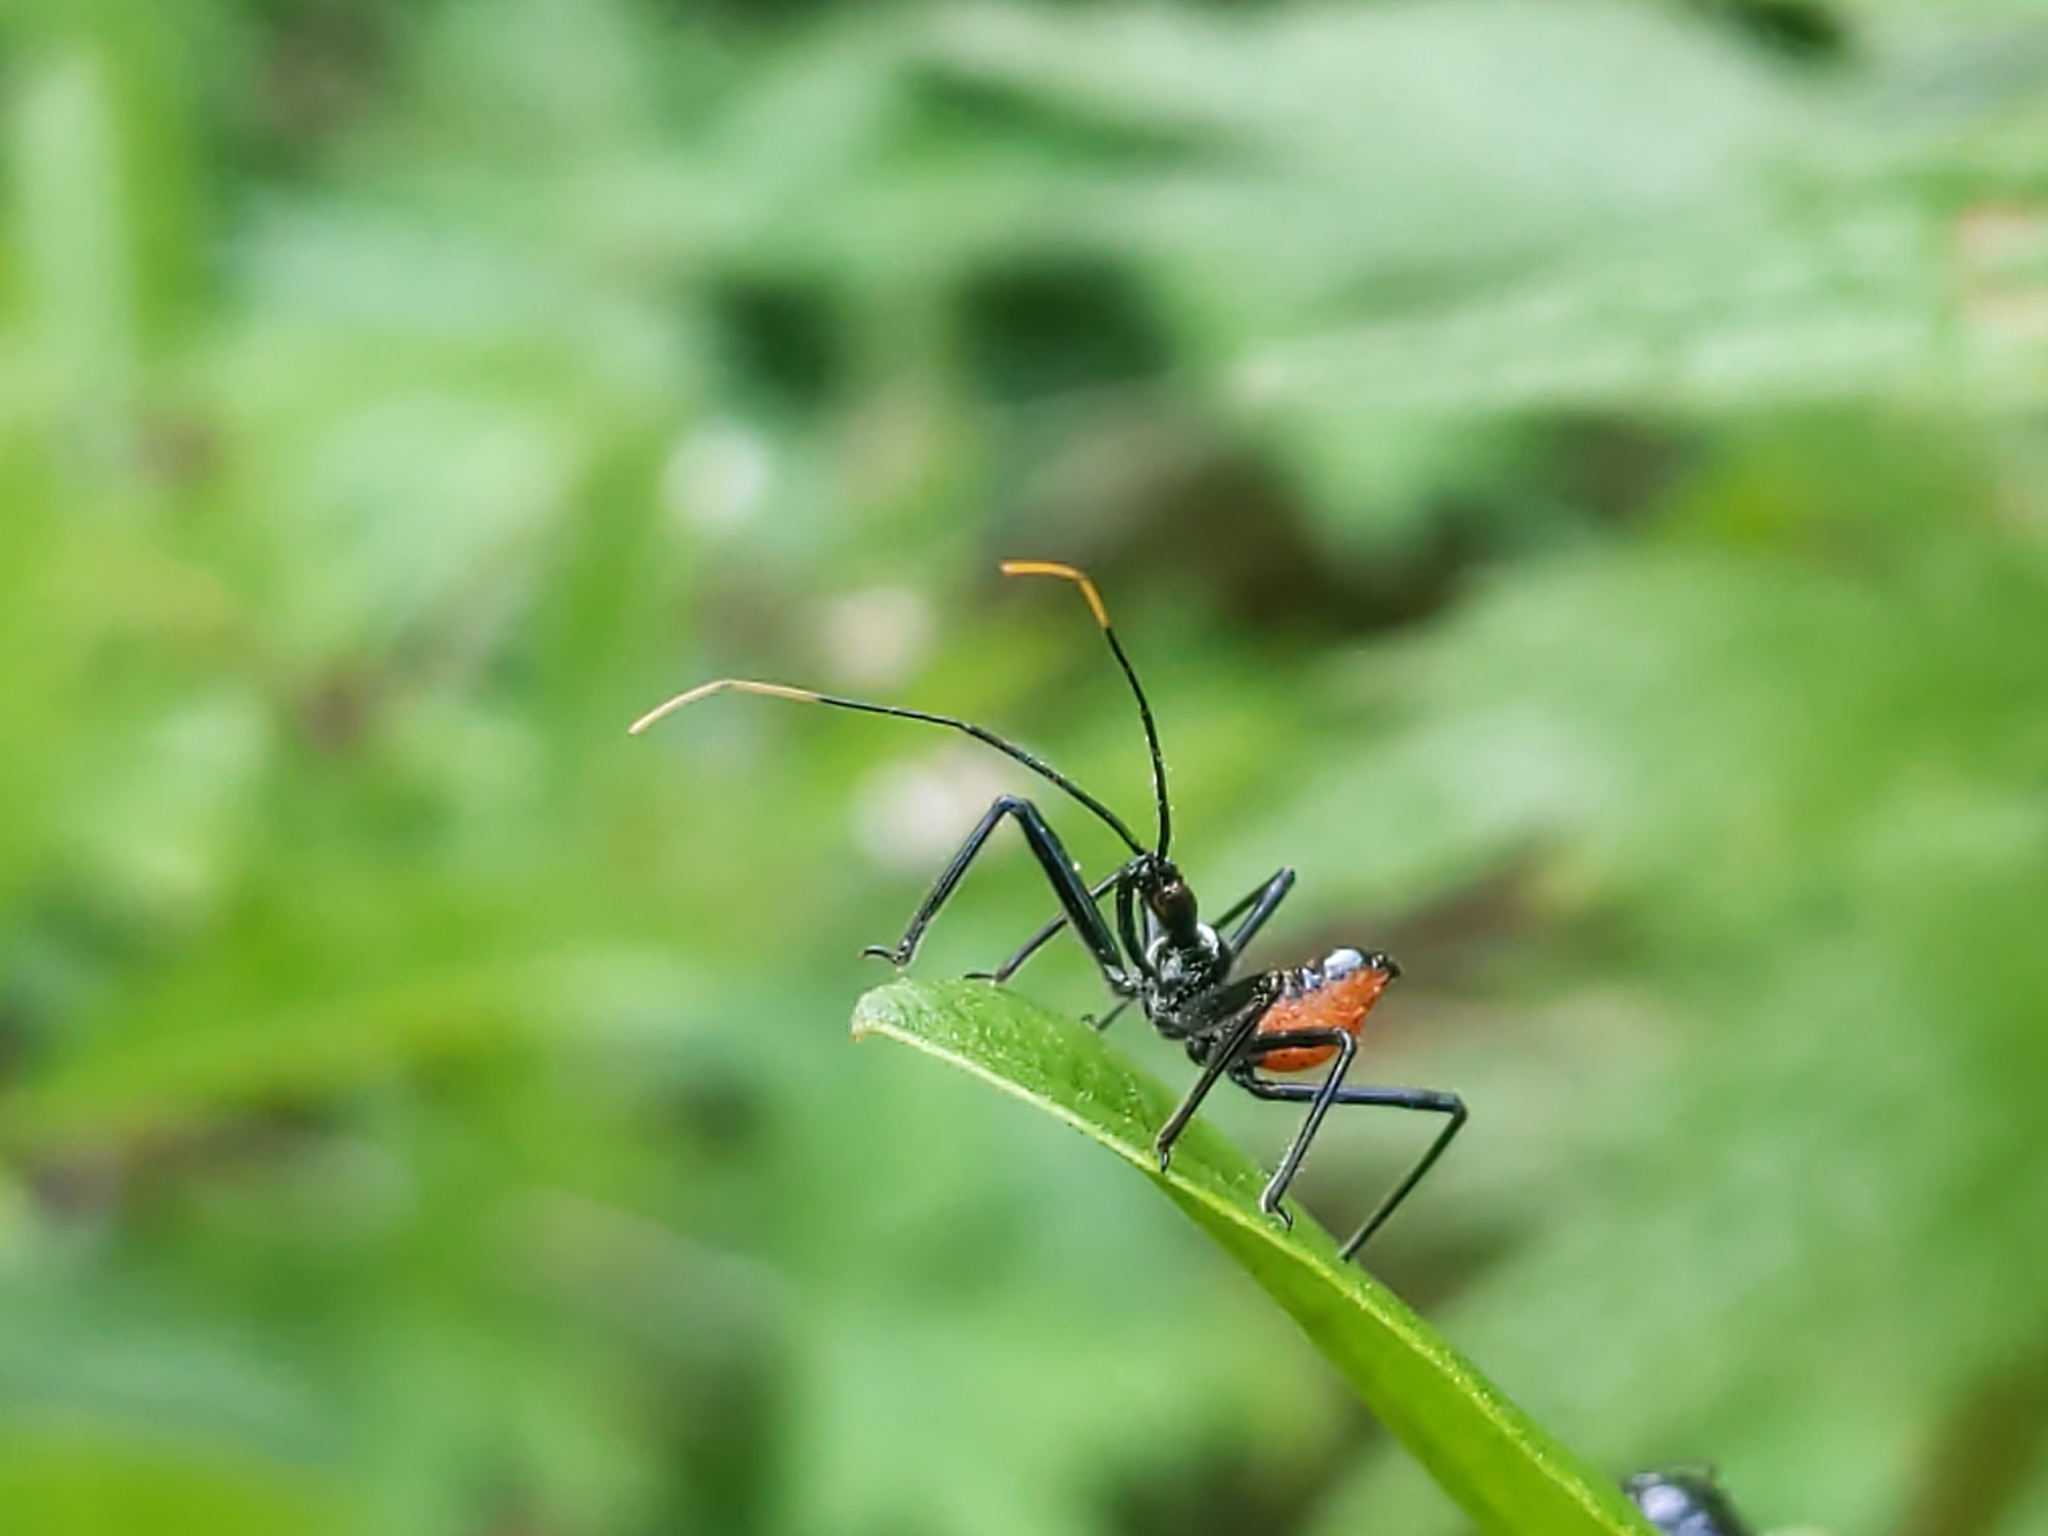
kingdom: Animalia
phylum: Arthropoda
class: Insecta
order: Hemiptera
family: Reduviidae
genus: Arilus
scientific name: Arilus cristatus
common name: North american wheel bug
